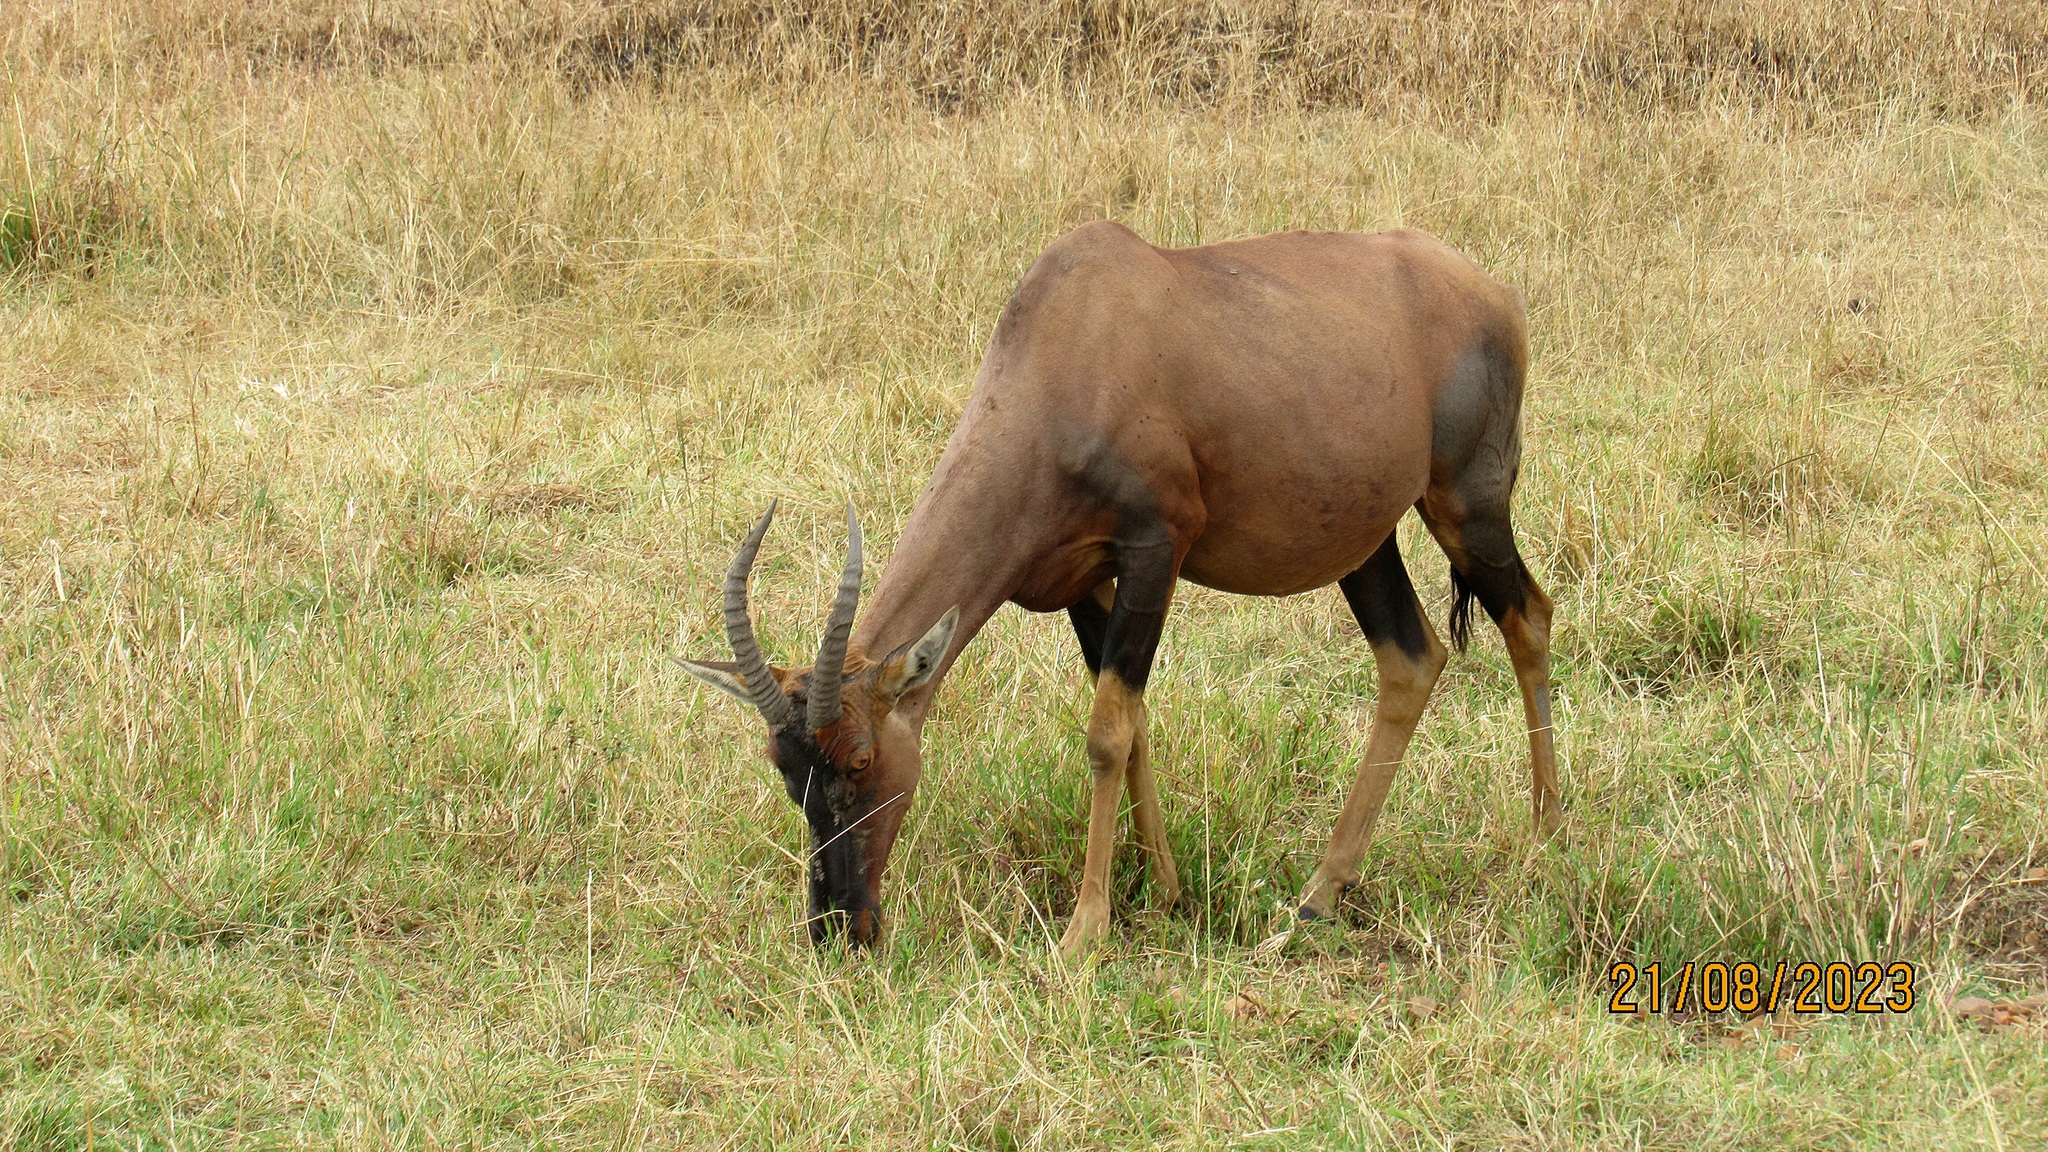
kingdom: Animalia
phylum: Chordata
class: Mammalia
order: Artiodactyla
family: Bovidae
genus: Damaliscus
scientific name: Damaliscus korrigum
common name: Topi
